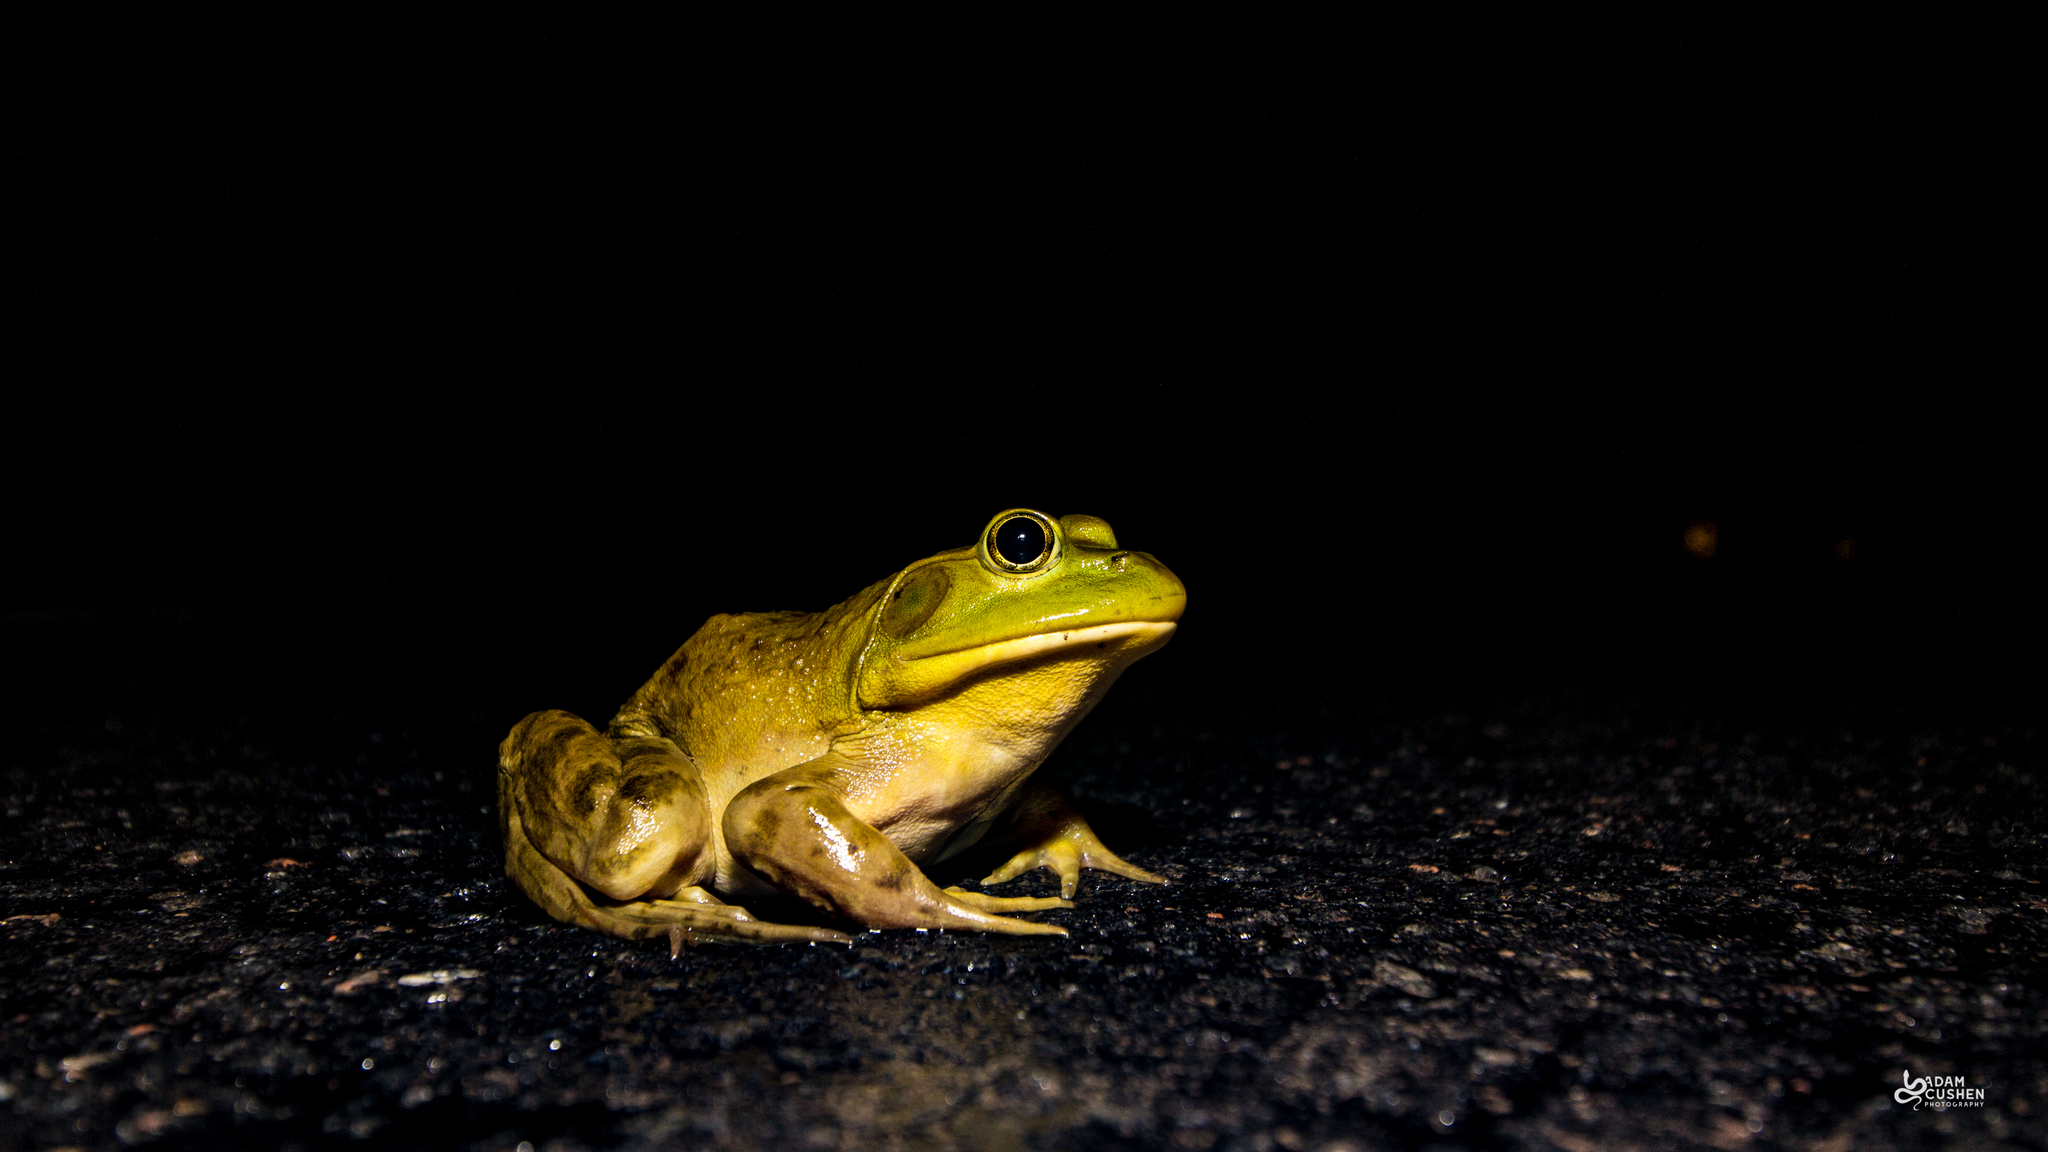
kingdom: Animalia
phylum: Chordata
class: Amphibia
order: Anura
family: Ranidae
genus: Lithobates
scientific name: Lithobates catesbeianus
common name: American bullfrog
